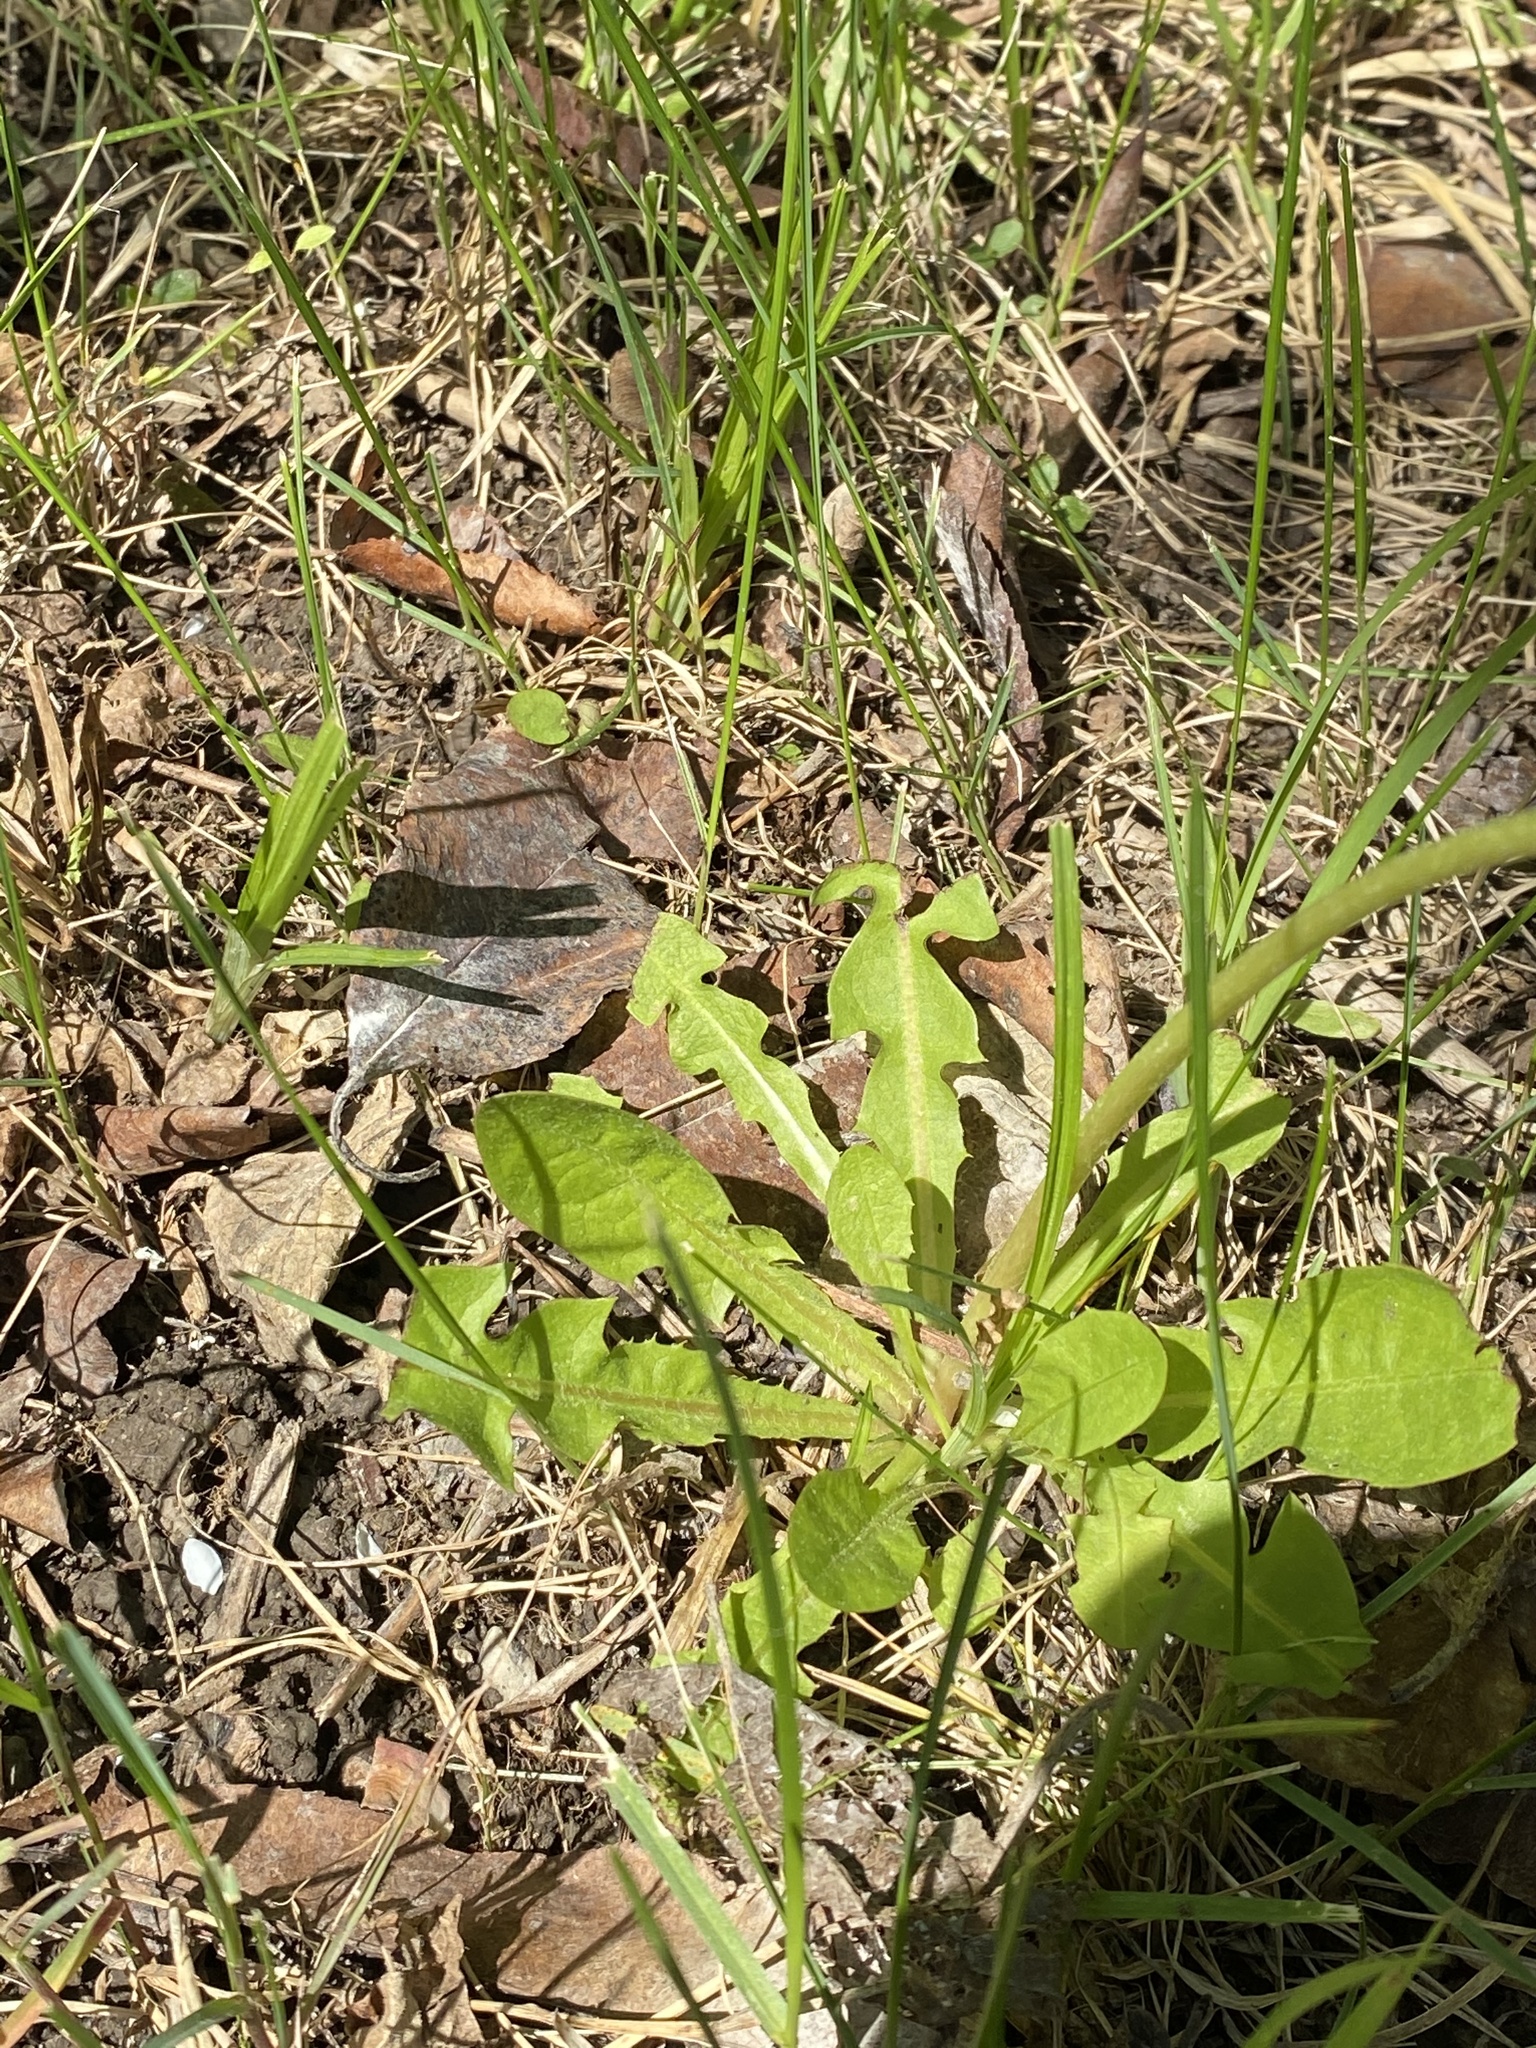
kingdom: Plantae
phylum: Tracheophyta
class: Magnoliopsida
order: Asterales
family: Asteraceae
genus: Taraxacum
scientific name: Taraxacum officinale
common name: Common dandelion
